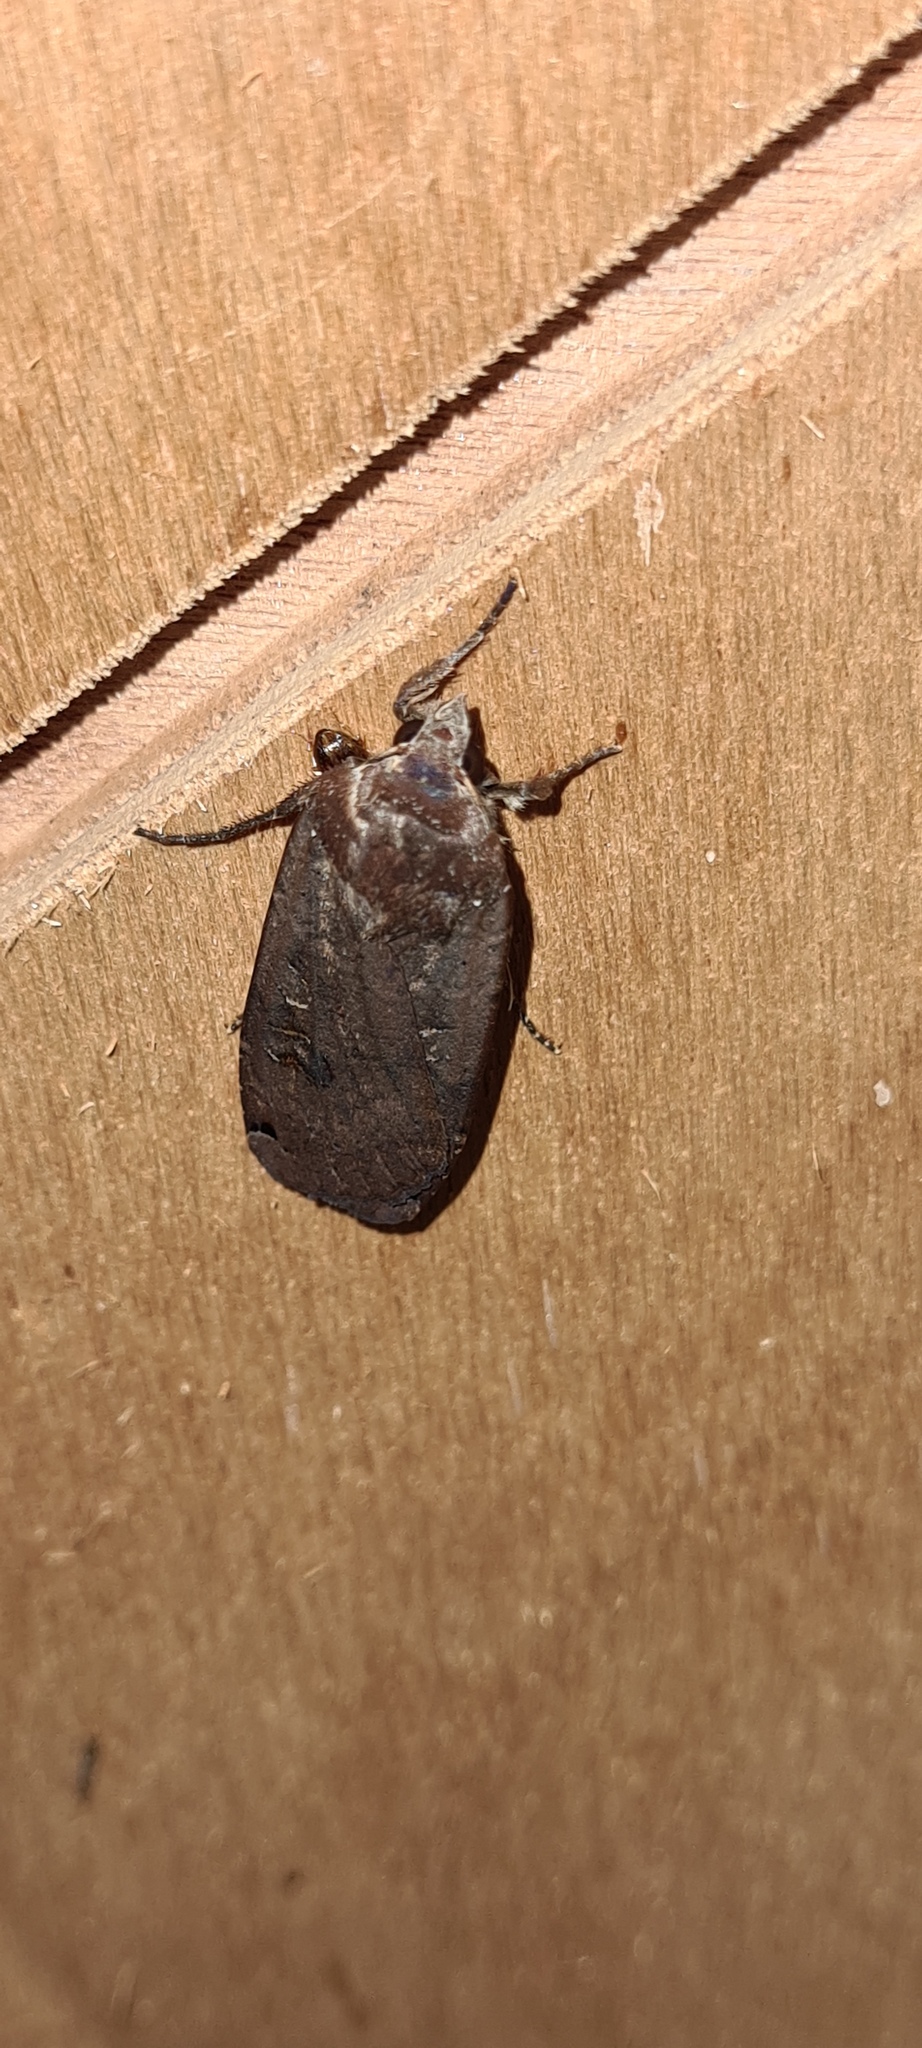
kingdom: Animalia
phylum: Arthropoda
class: Insecta
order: Lepidoptera
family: Noctuidae
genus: Noctua
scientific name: Noctua pronuba
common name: Large yellow underwing
